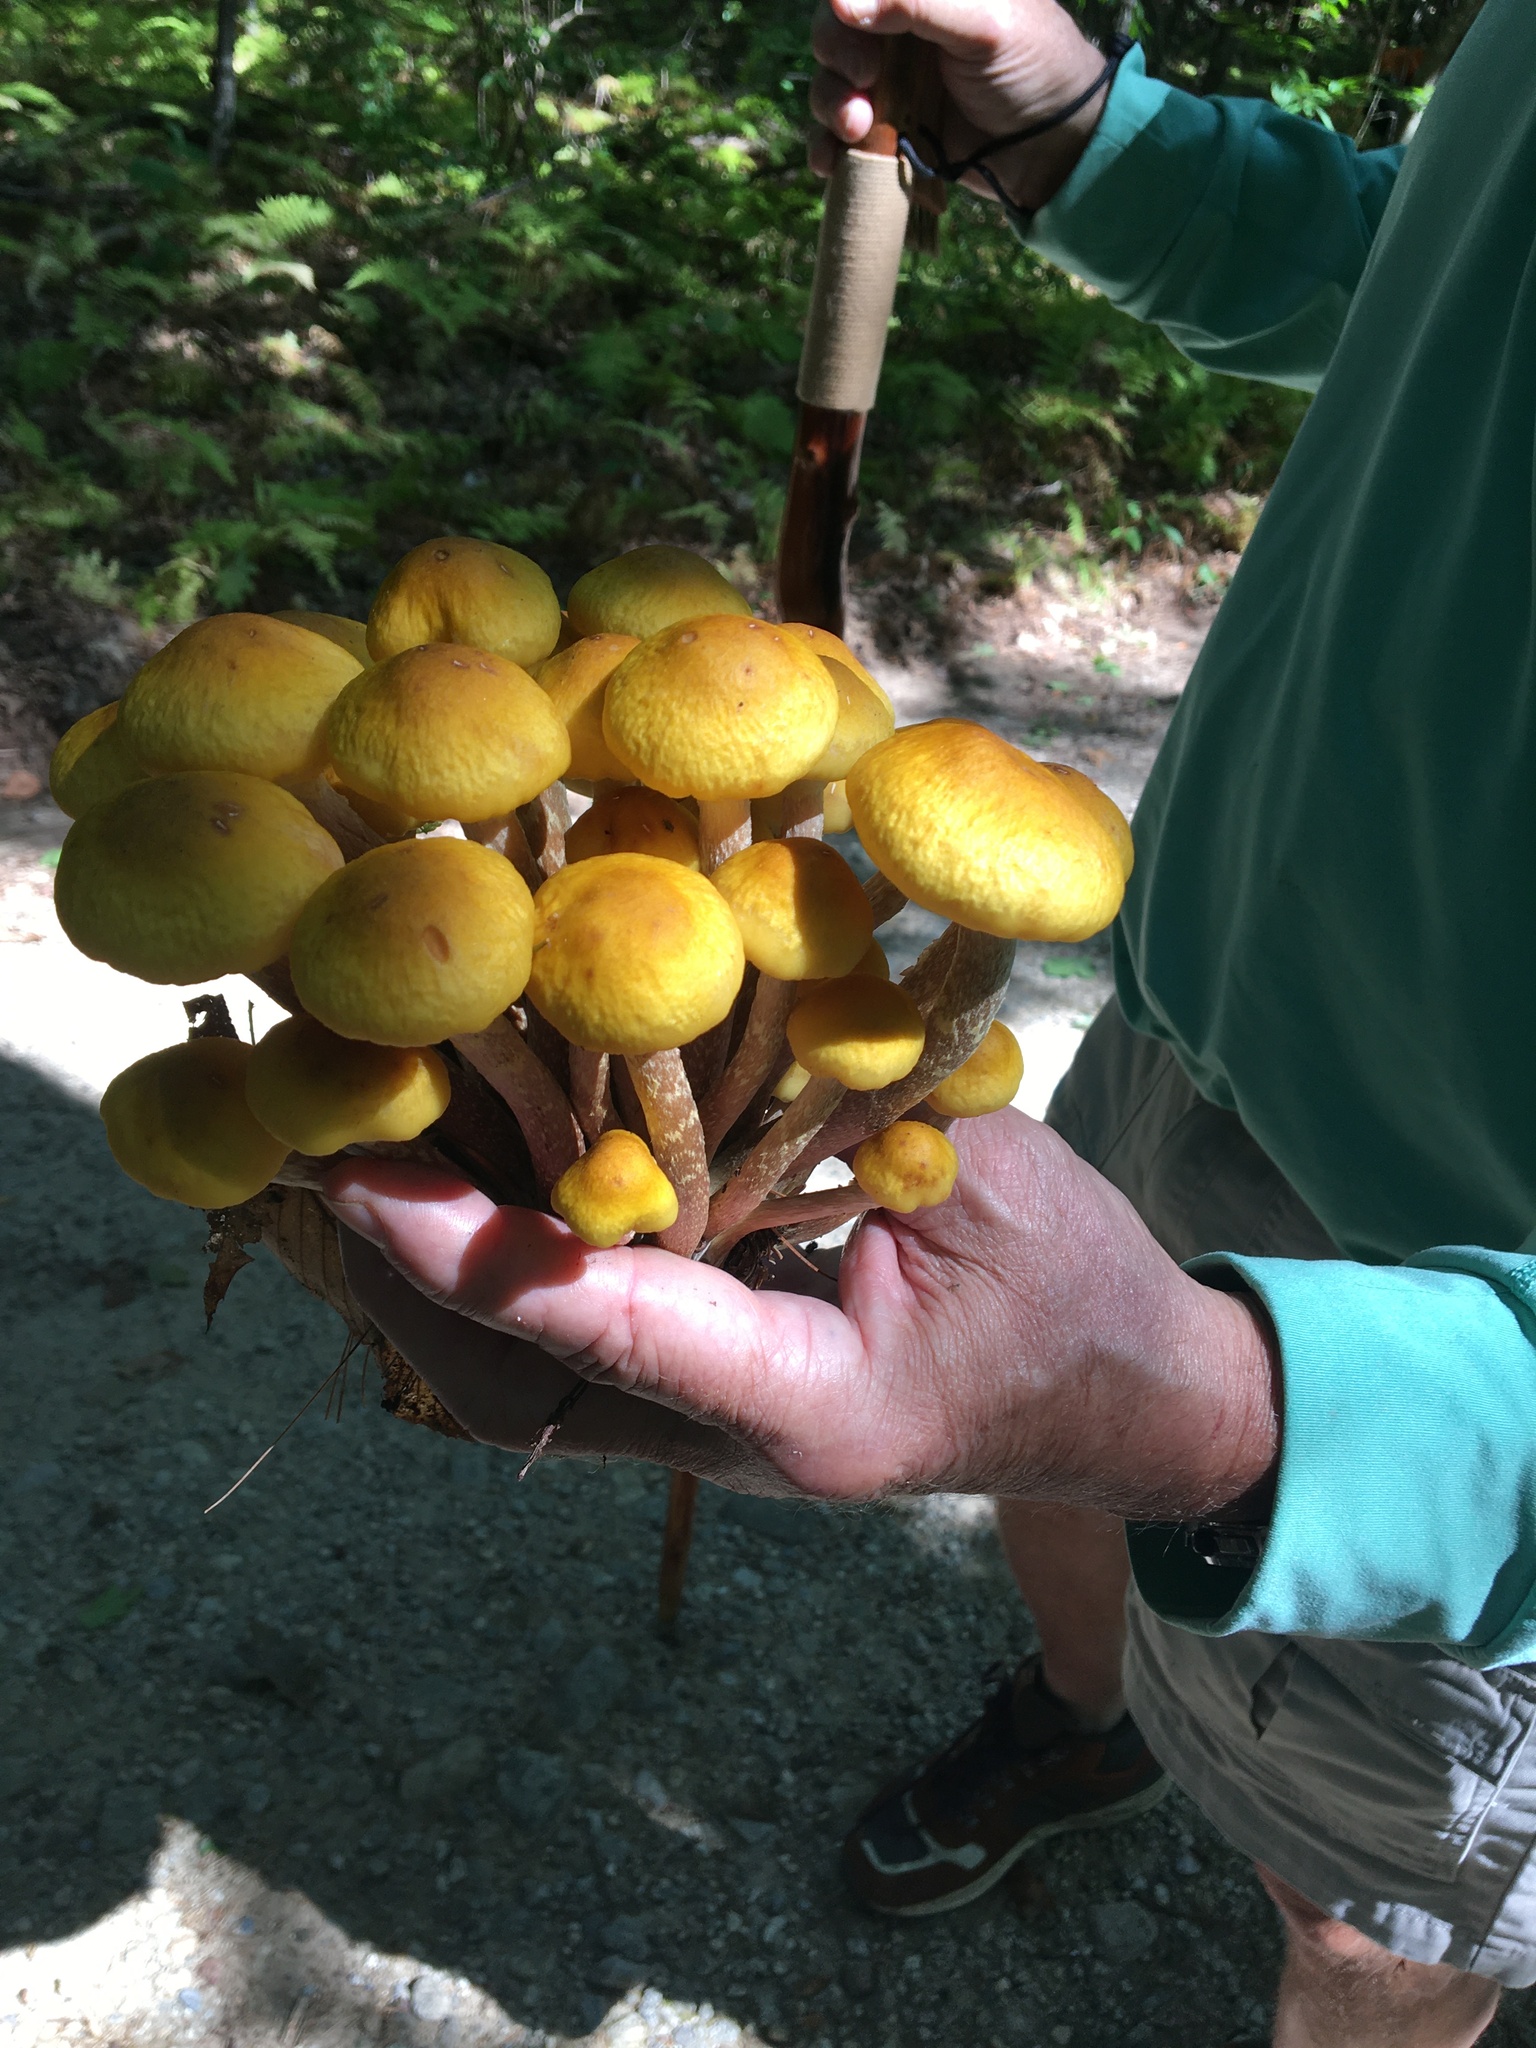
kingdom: Fungi
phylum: Basidiomycota
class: Agaricomycetes
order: Agaricales
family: Physalacriaceae
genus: Armillaria
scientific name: Armillaria mellea
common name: Honey fungus
